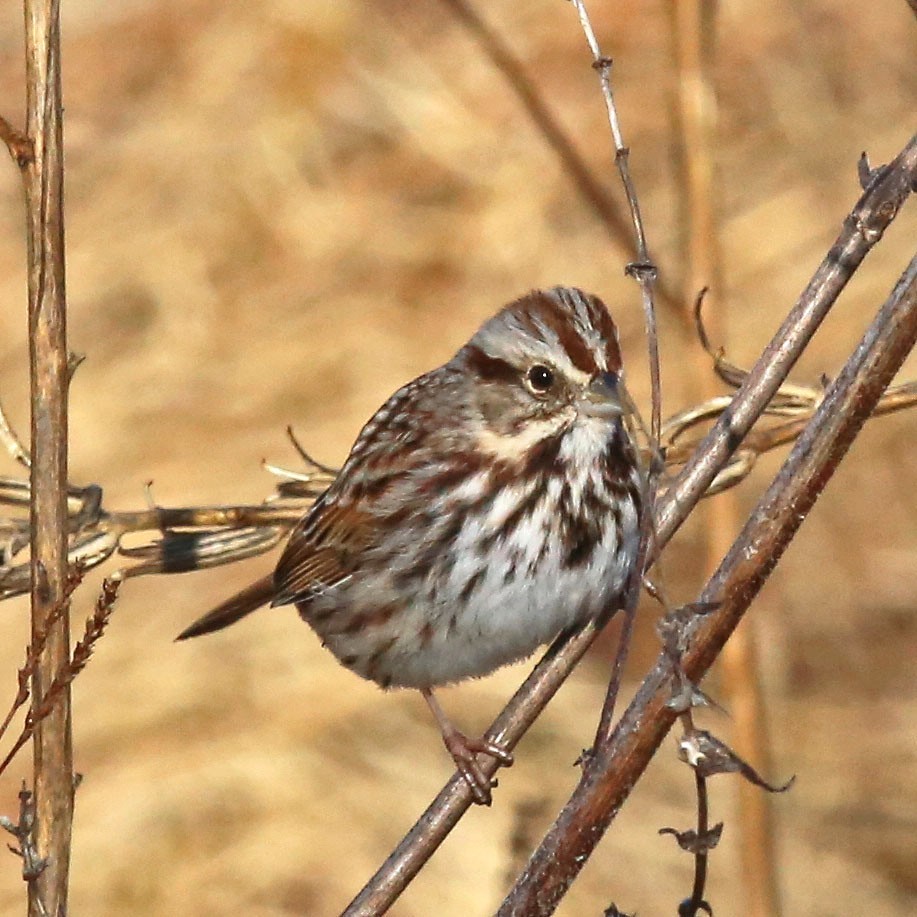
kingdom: Animalia
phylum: Chordata
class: Aves
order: Passeriformes
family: Passerellidae
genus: Melospiza
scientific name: Melospiza melodia
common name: Song sparrow
